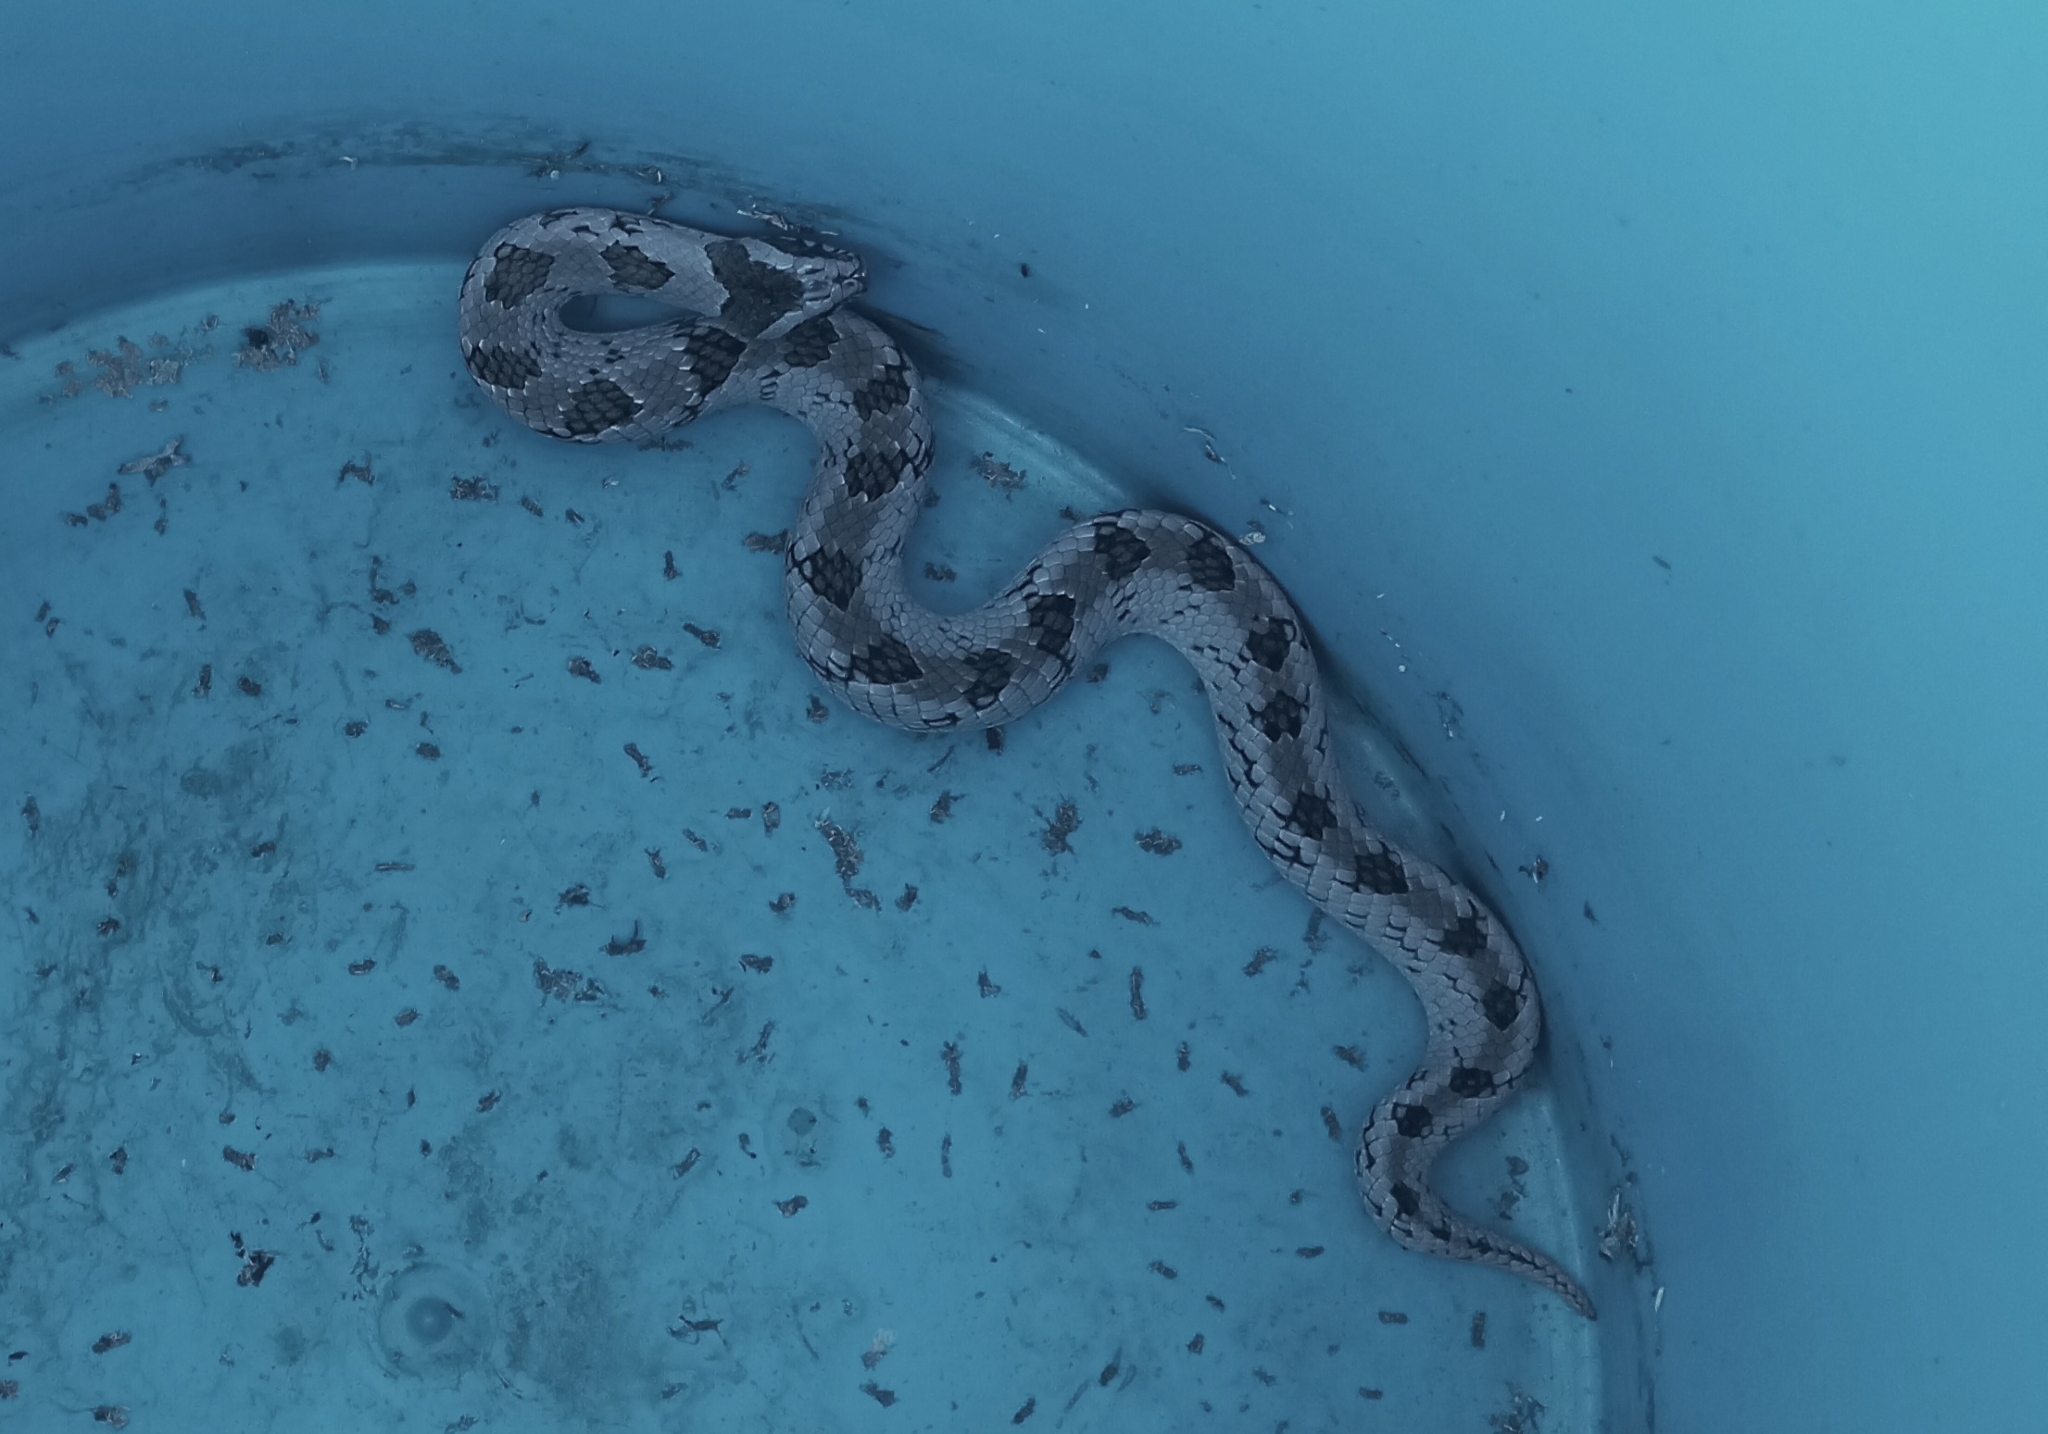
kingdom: Animalia
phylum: Chordata
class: Squamata
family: Viperidae
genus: Causus
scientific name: Causus defilippii
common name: Snouted night adder
